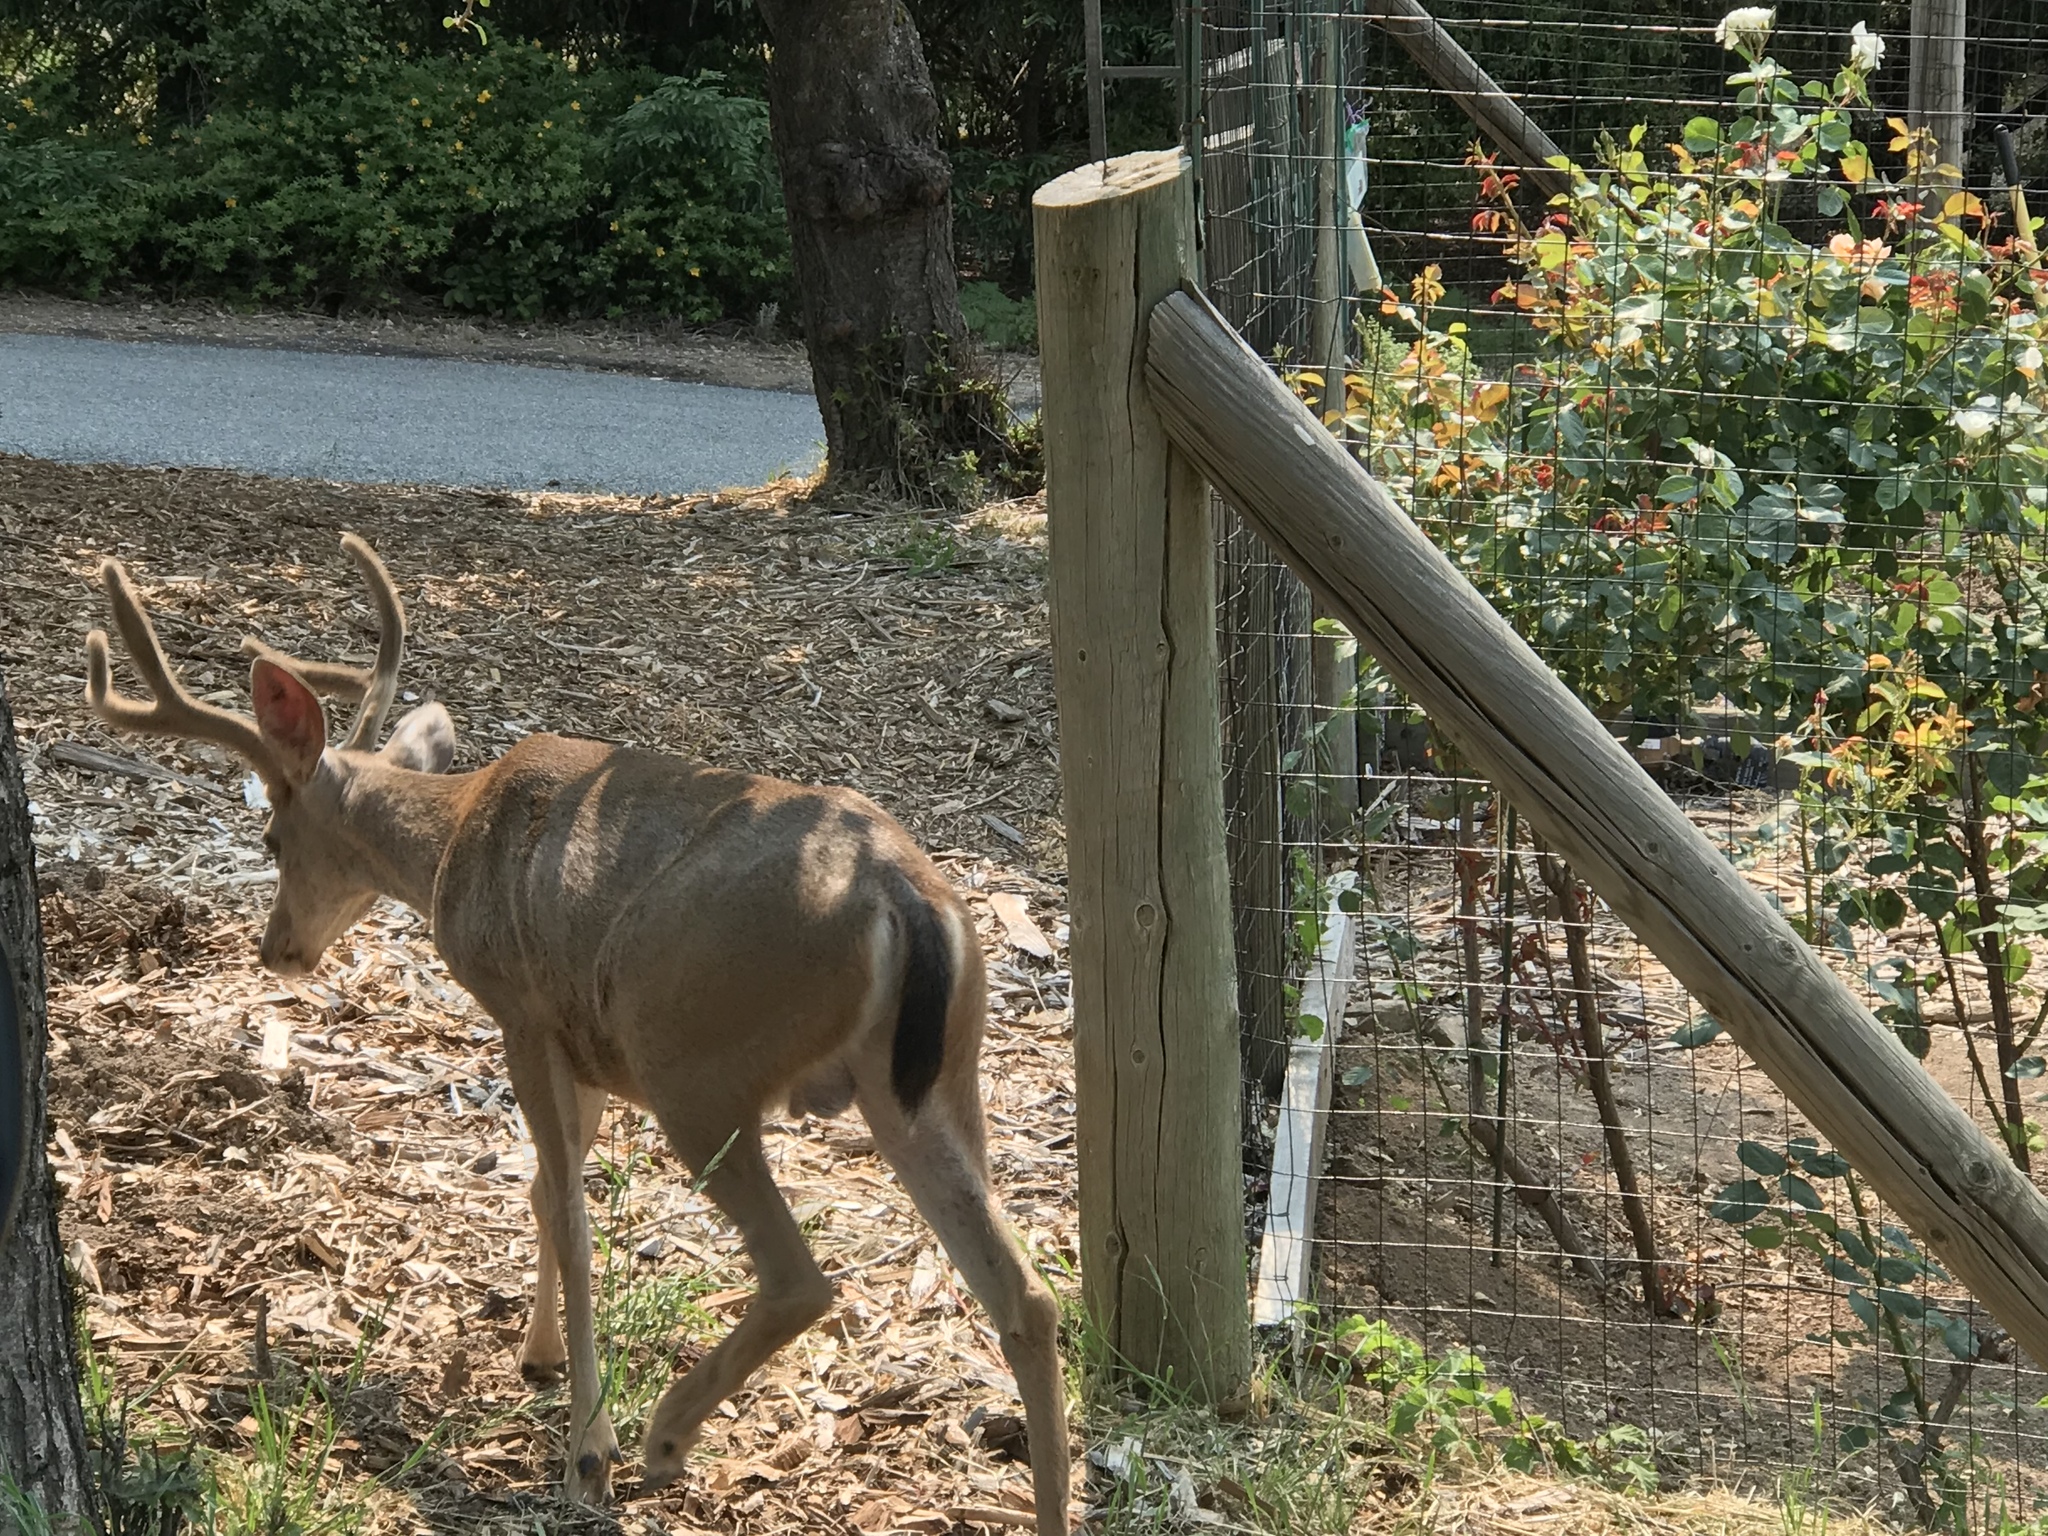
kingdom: Animalia
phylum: Chordata
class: Mammalia
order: Artiodactyla
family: Cervidae
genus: Odocoileus
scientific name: Odocoileus hemionus
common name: Mule deer
